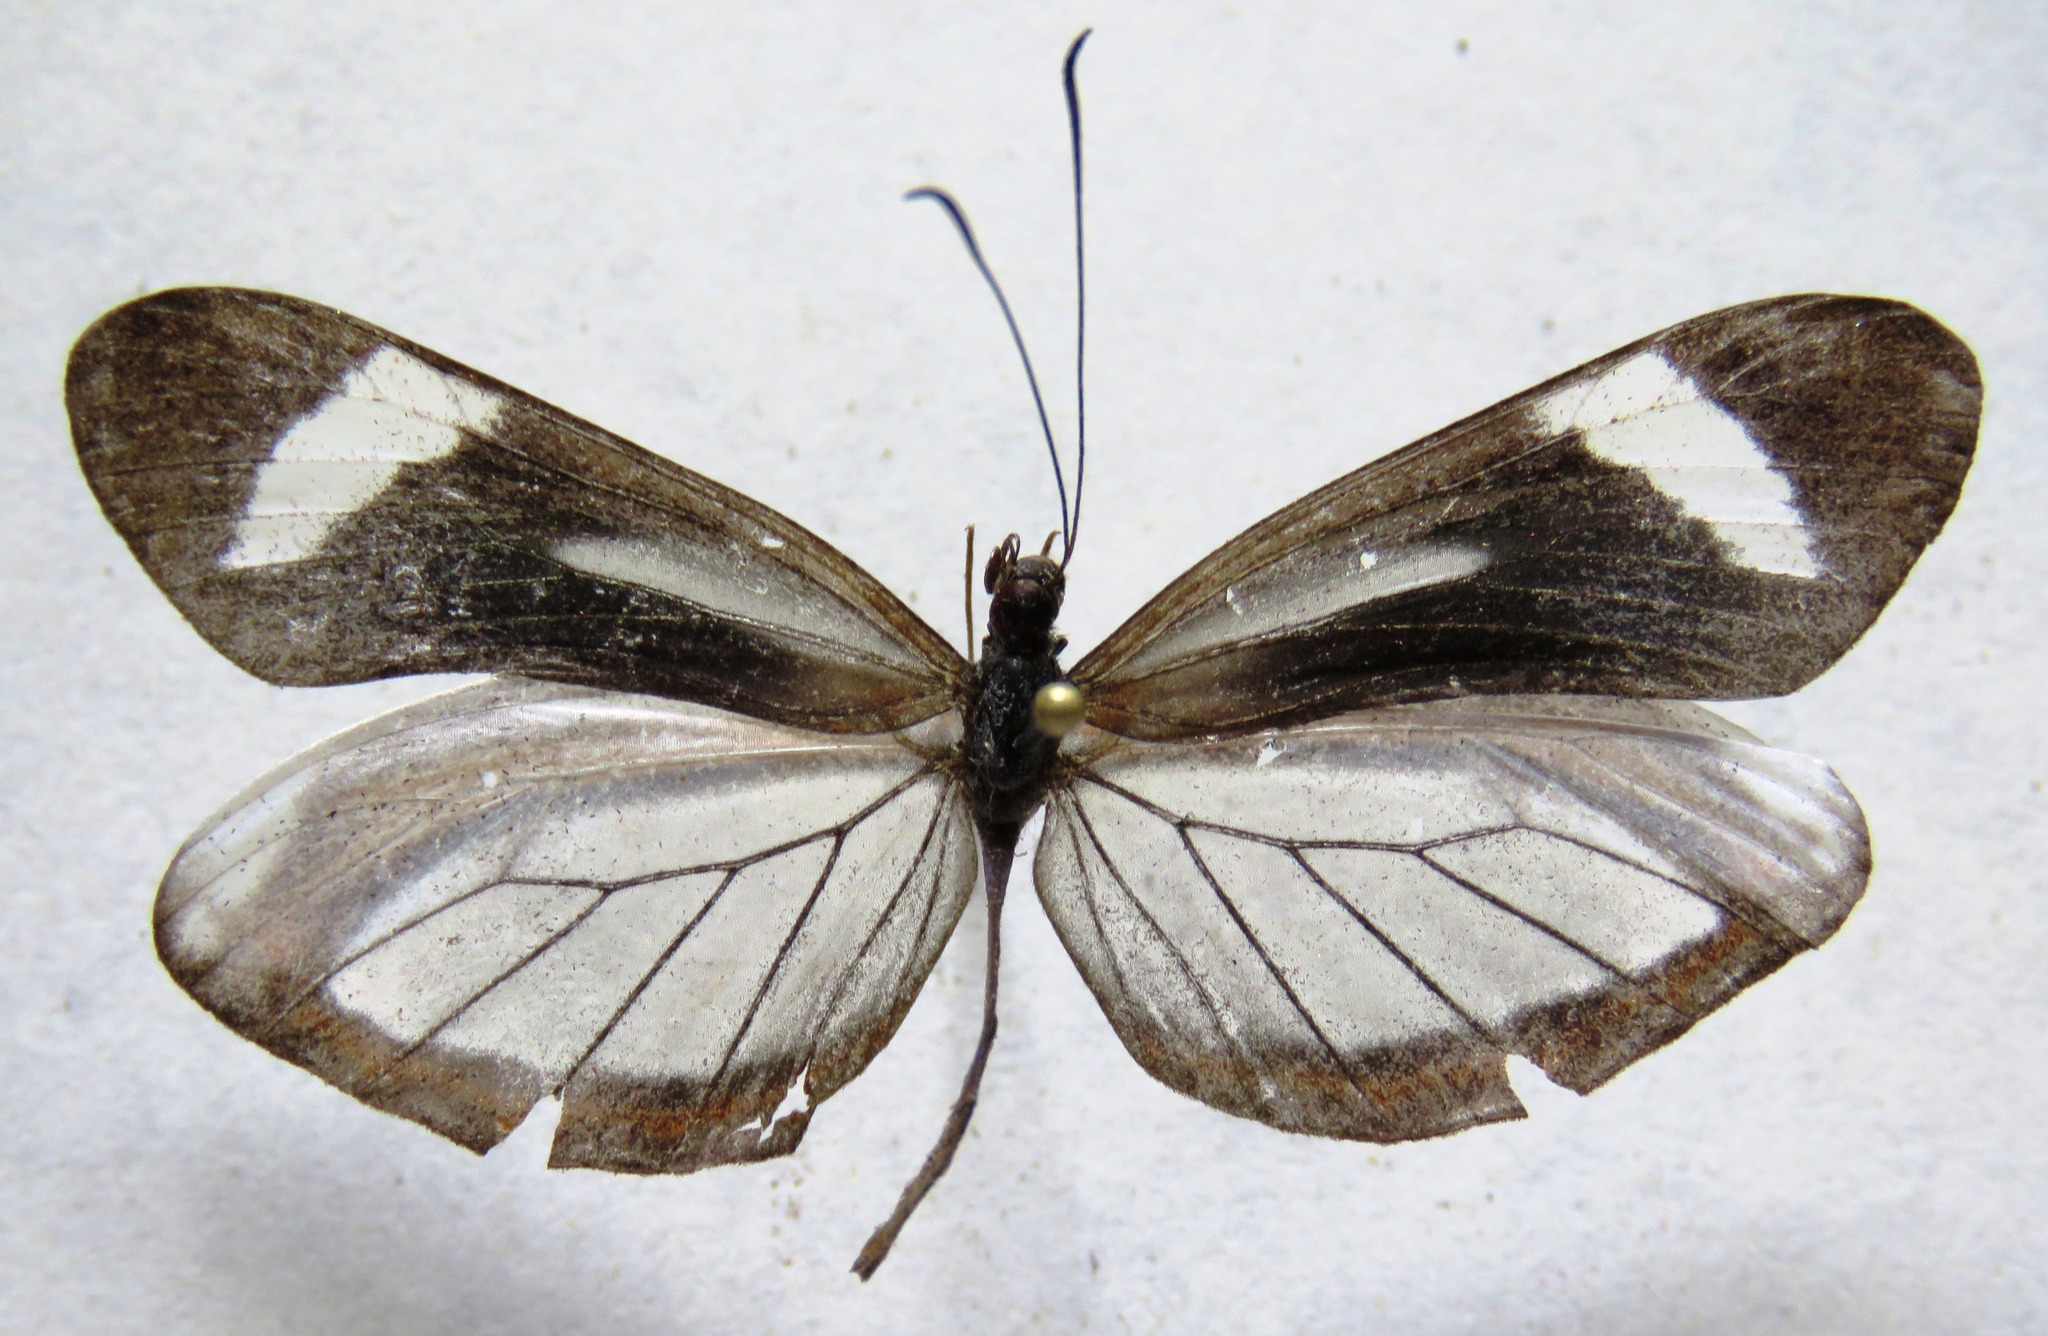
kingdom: Animalia
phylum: Arthropoda
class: Insecta
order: Lepidoptera
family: Pieridae
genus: Dismorphia
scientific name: Dismorphia theucharila
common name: Clearwing mimic-white
